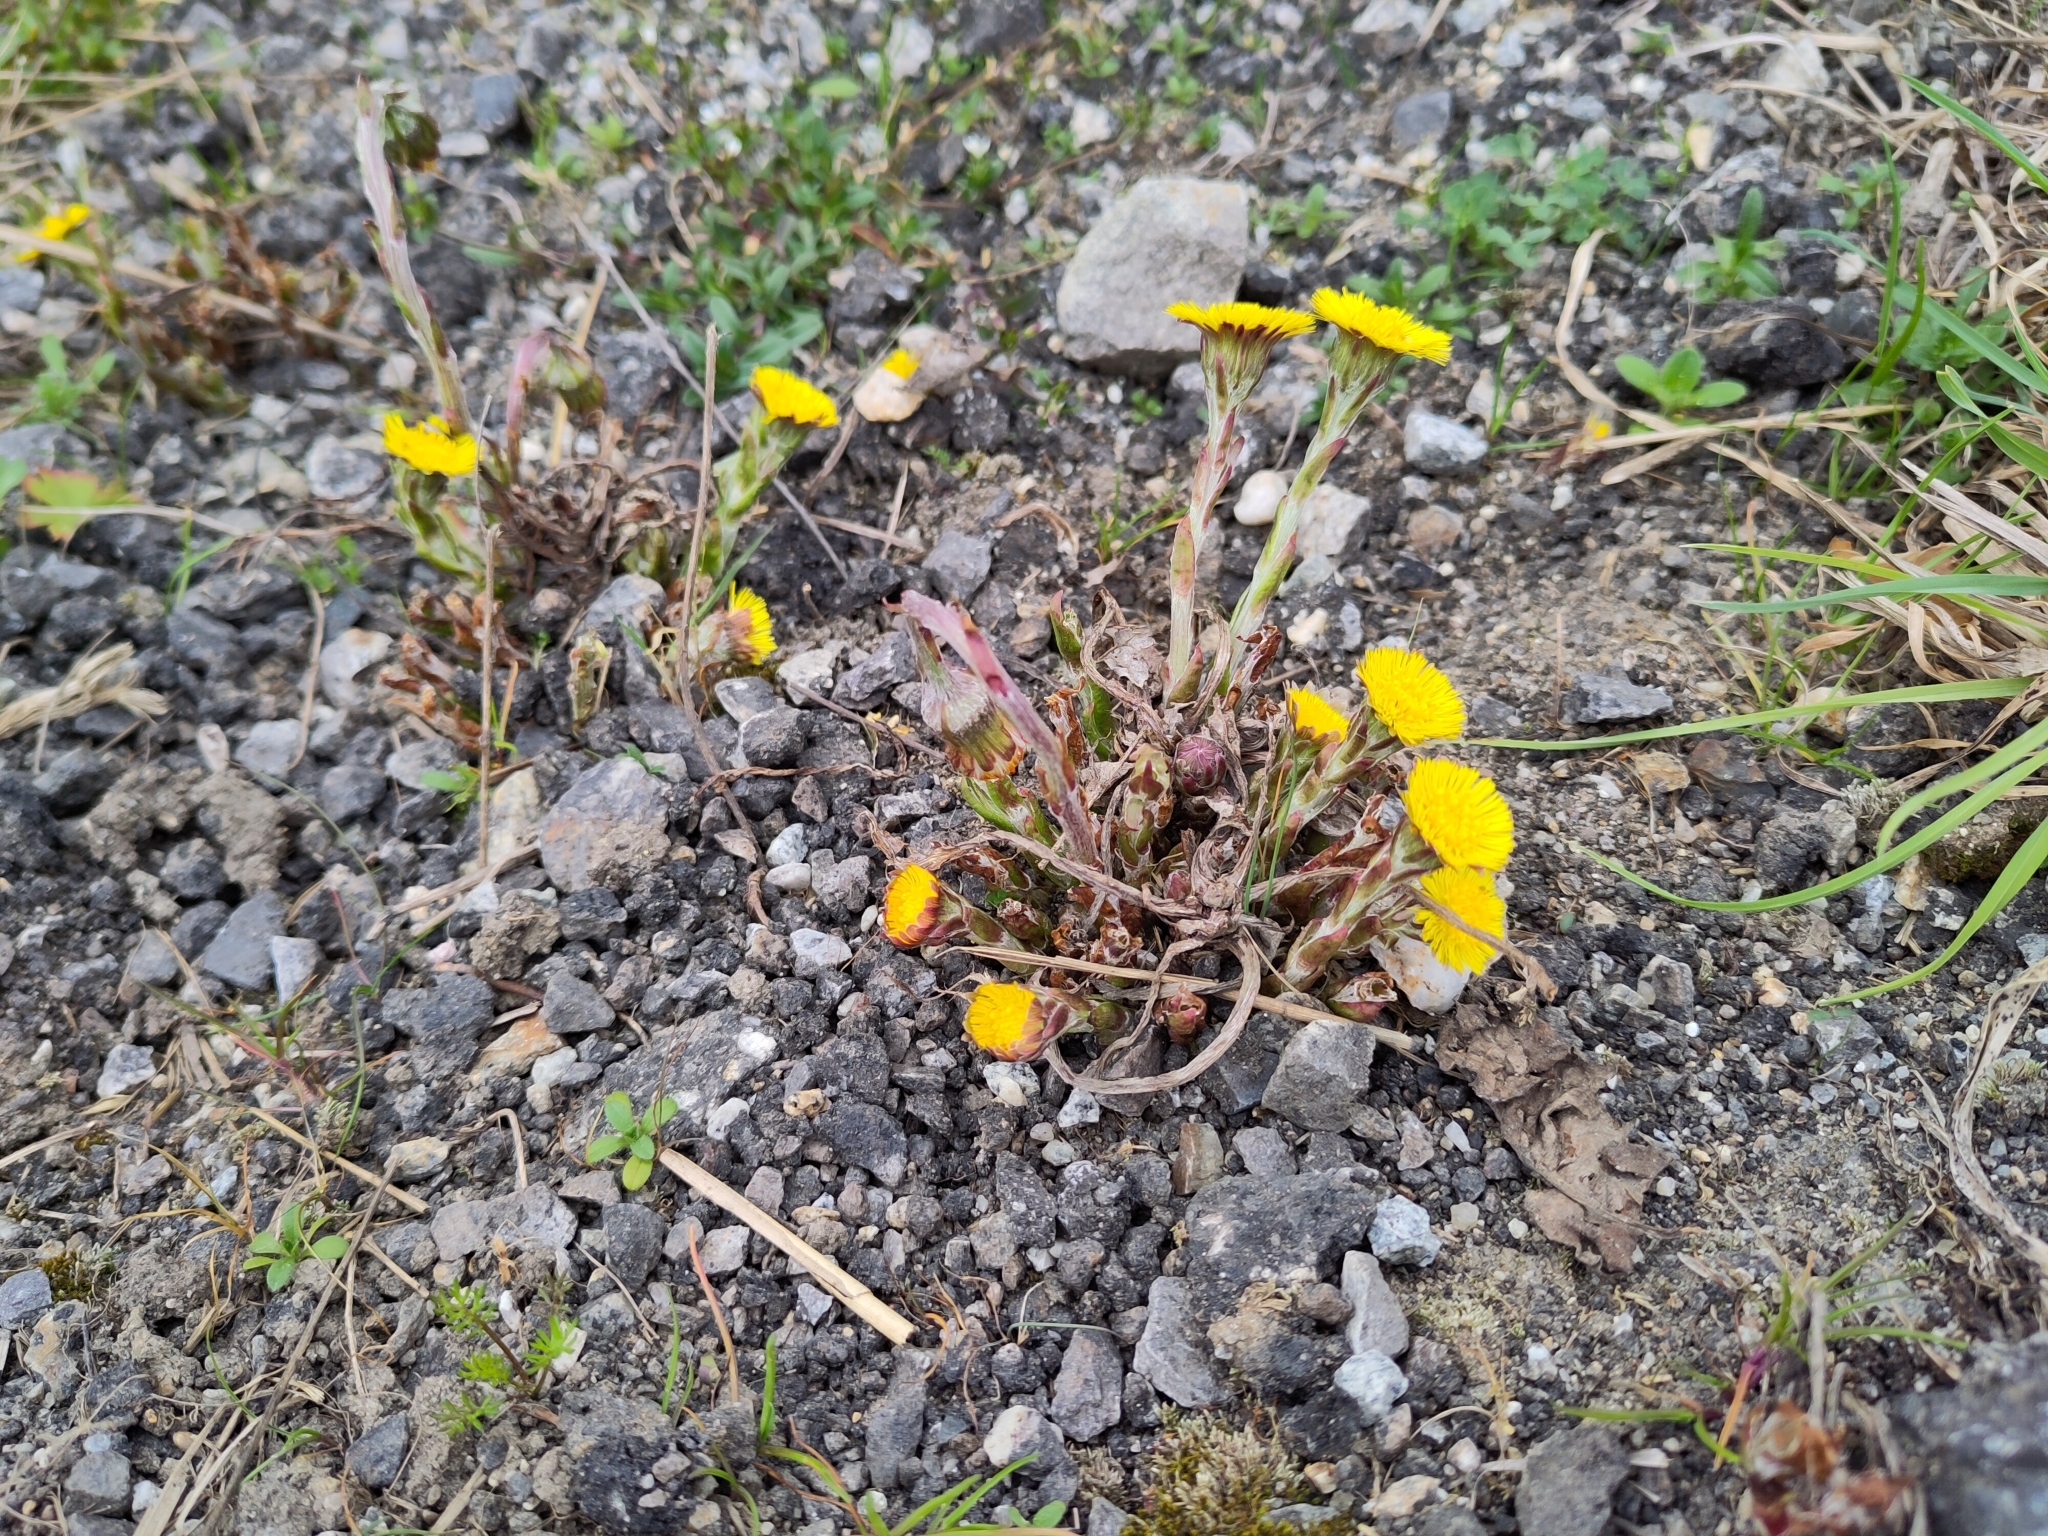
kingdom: Plantae
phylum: Tracheophyta
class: Magnoliopsida
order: Asterales
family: Asteraceae
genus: Tussilago
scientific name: Tussilago farfara
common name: Coltsfoot
